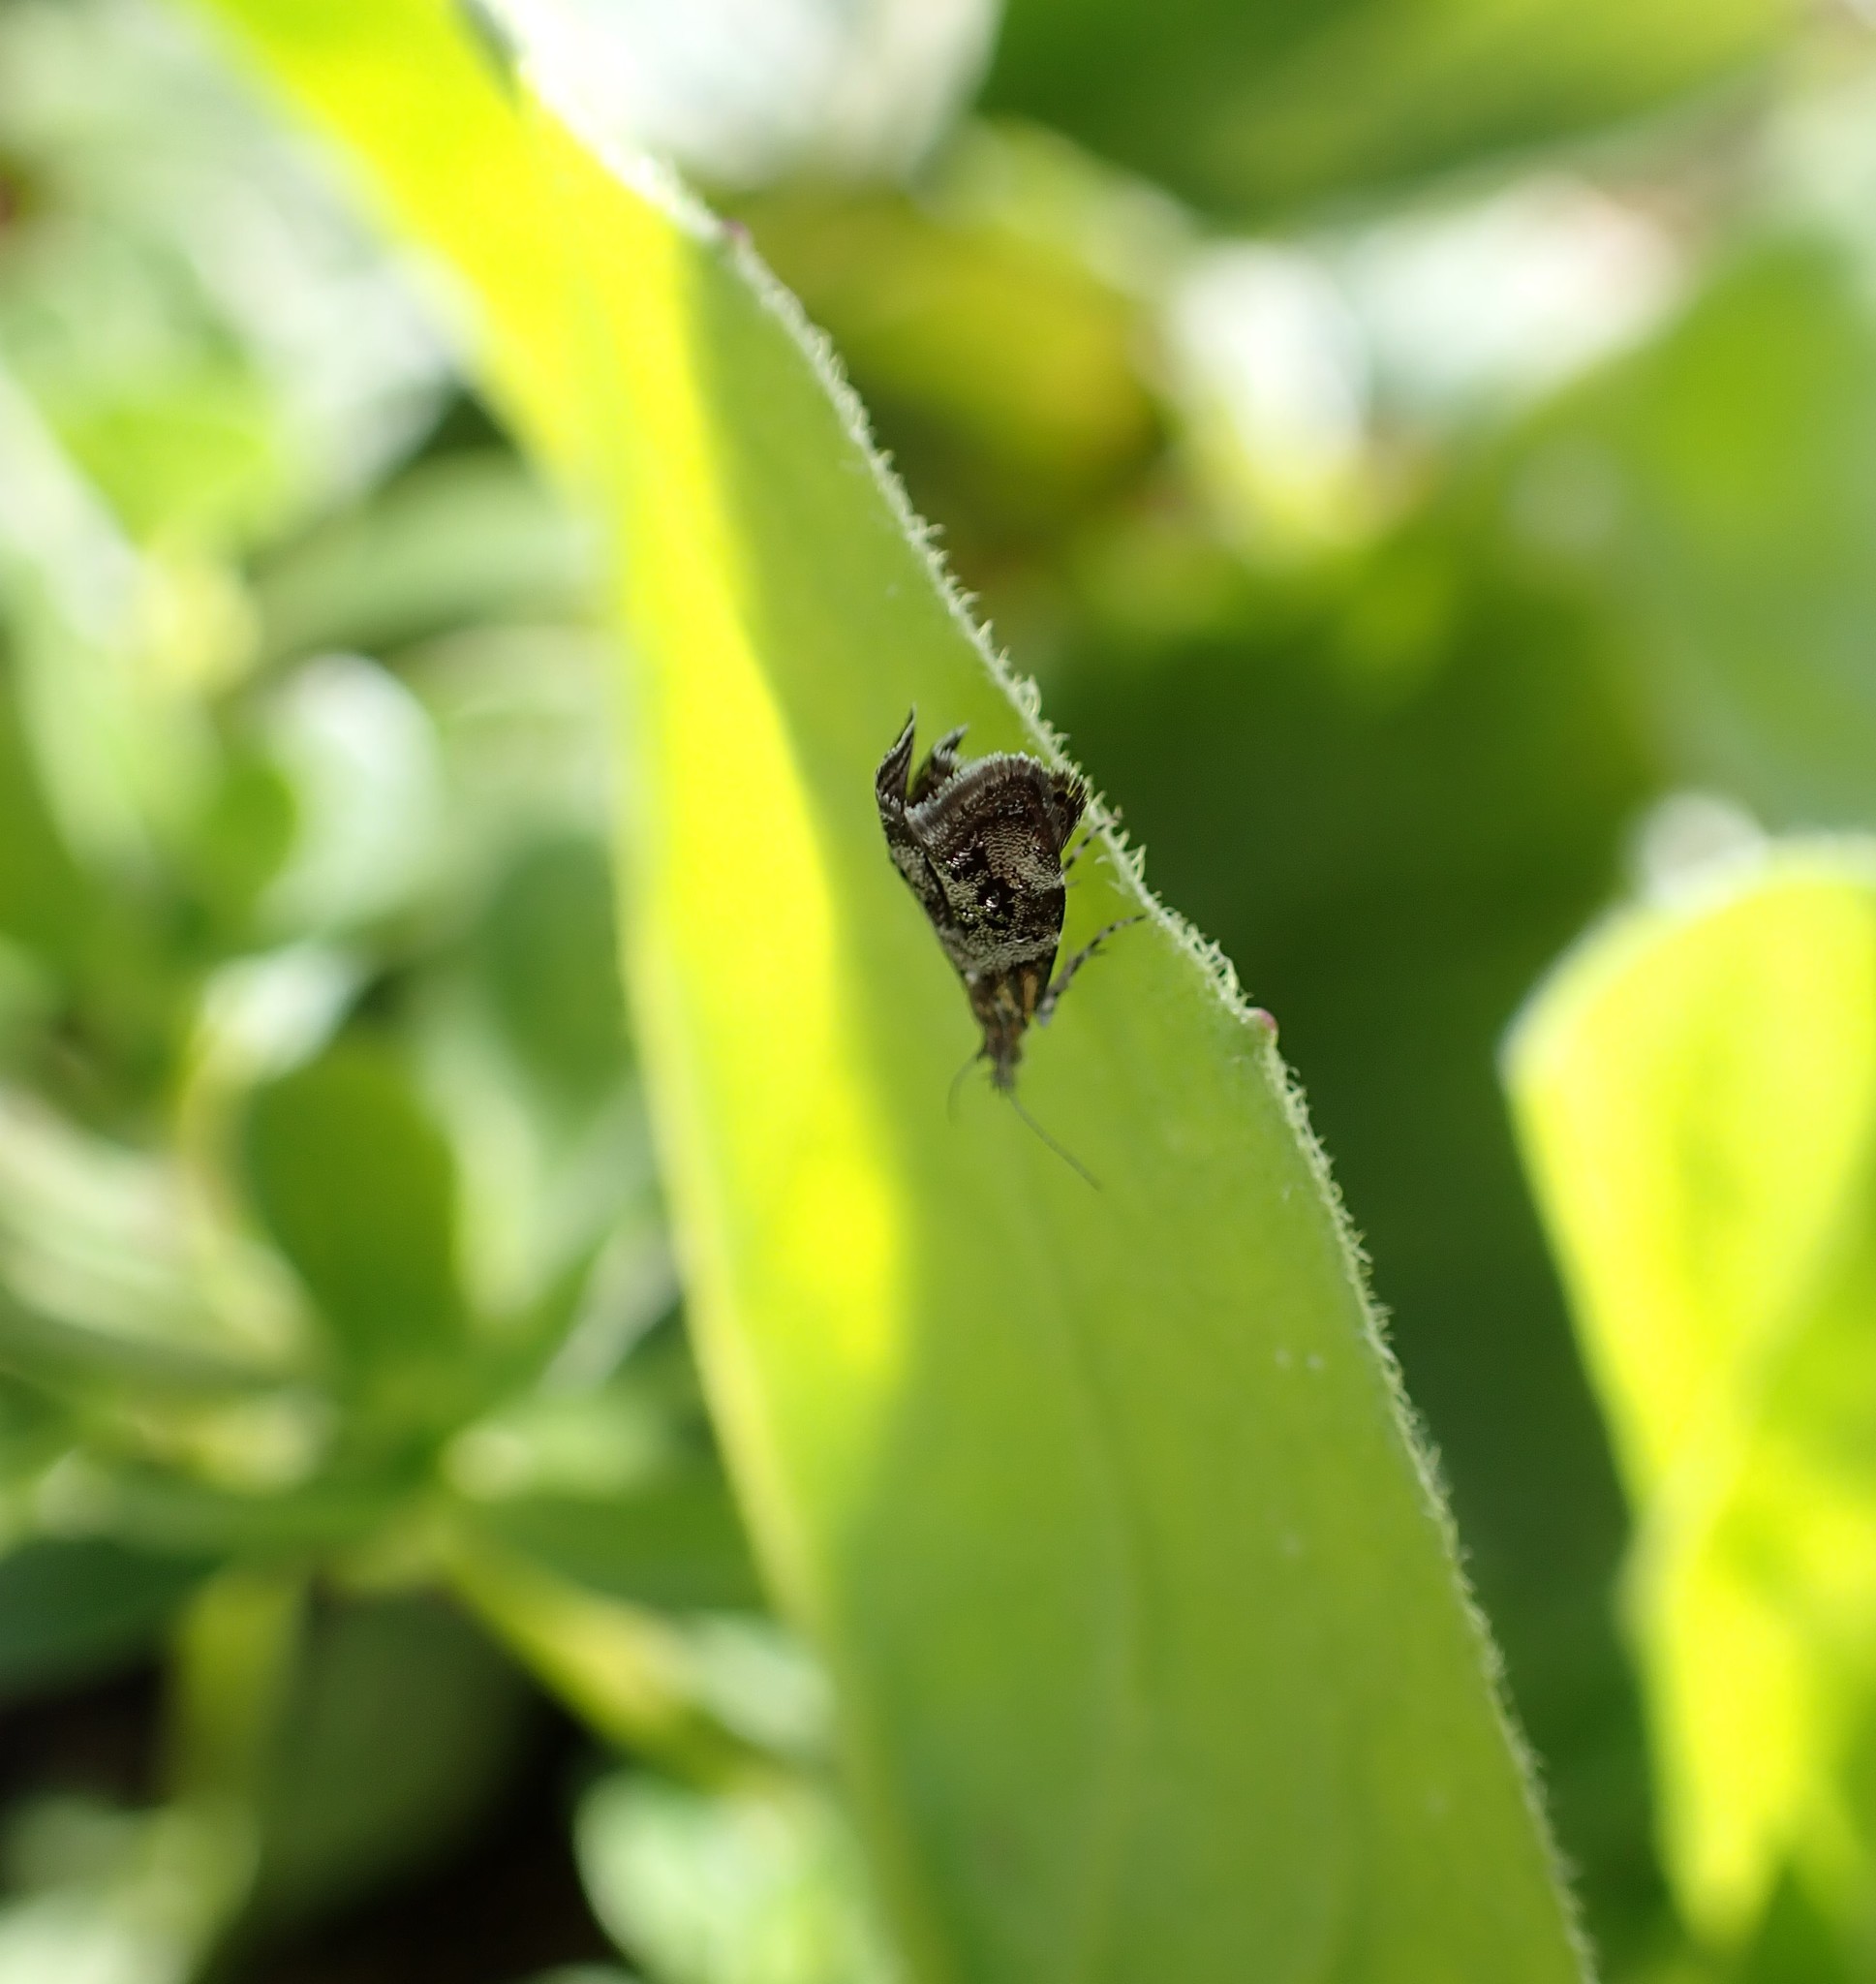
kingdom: Animalia
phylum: Arthropoda
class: Insecta
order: Lepidoptera
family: Choreutidae
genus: Tebenna
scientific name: Tebenna micalis
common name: Vagrant twitcher
